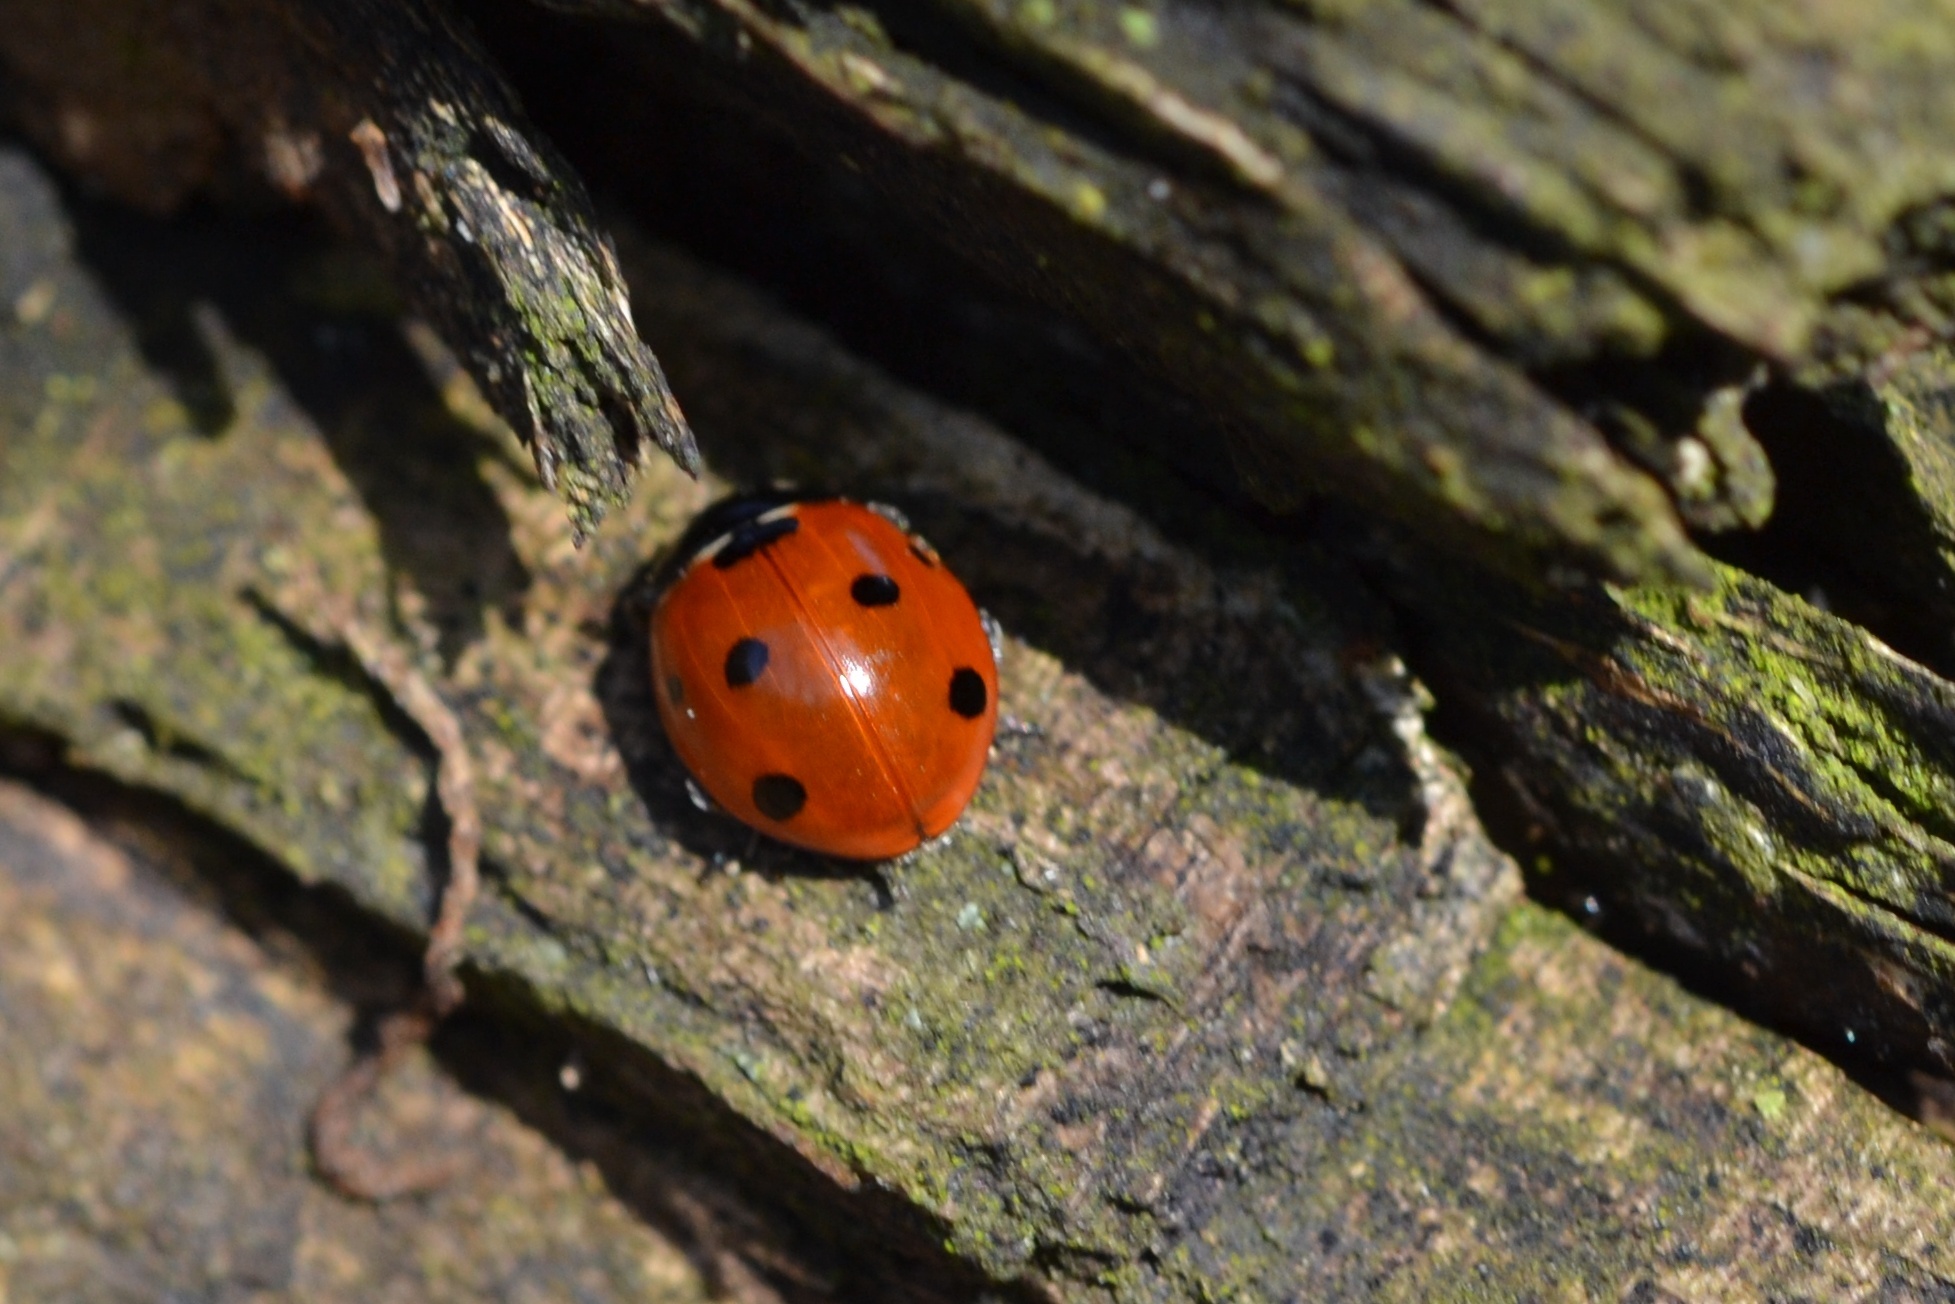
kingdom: Animalia
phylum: Arthropoda
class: Insecta
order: Coleoptera
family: Coccinellidae
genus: Coccinella
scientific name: Coccinella septempunctata
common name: Sevenspotted lady beetle
